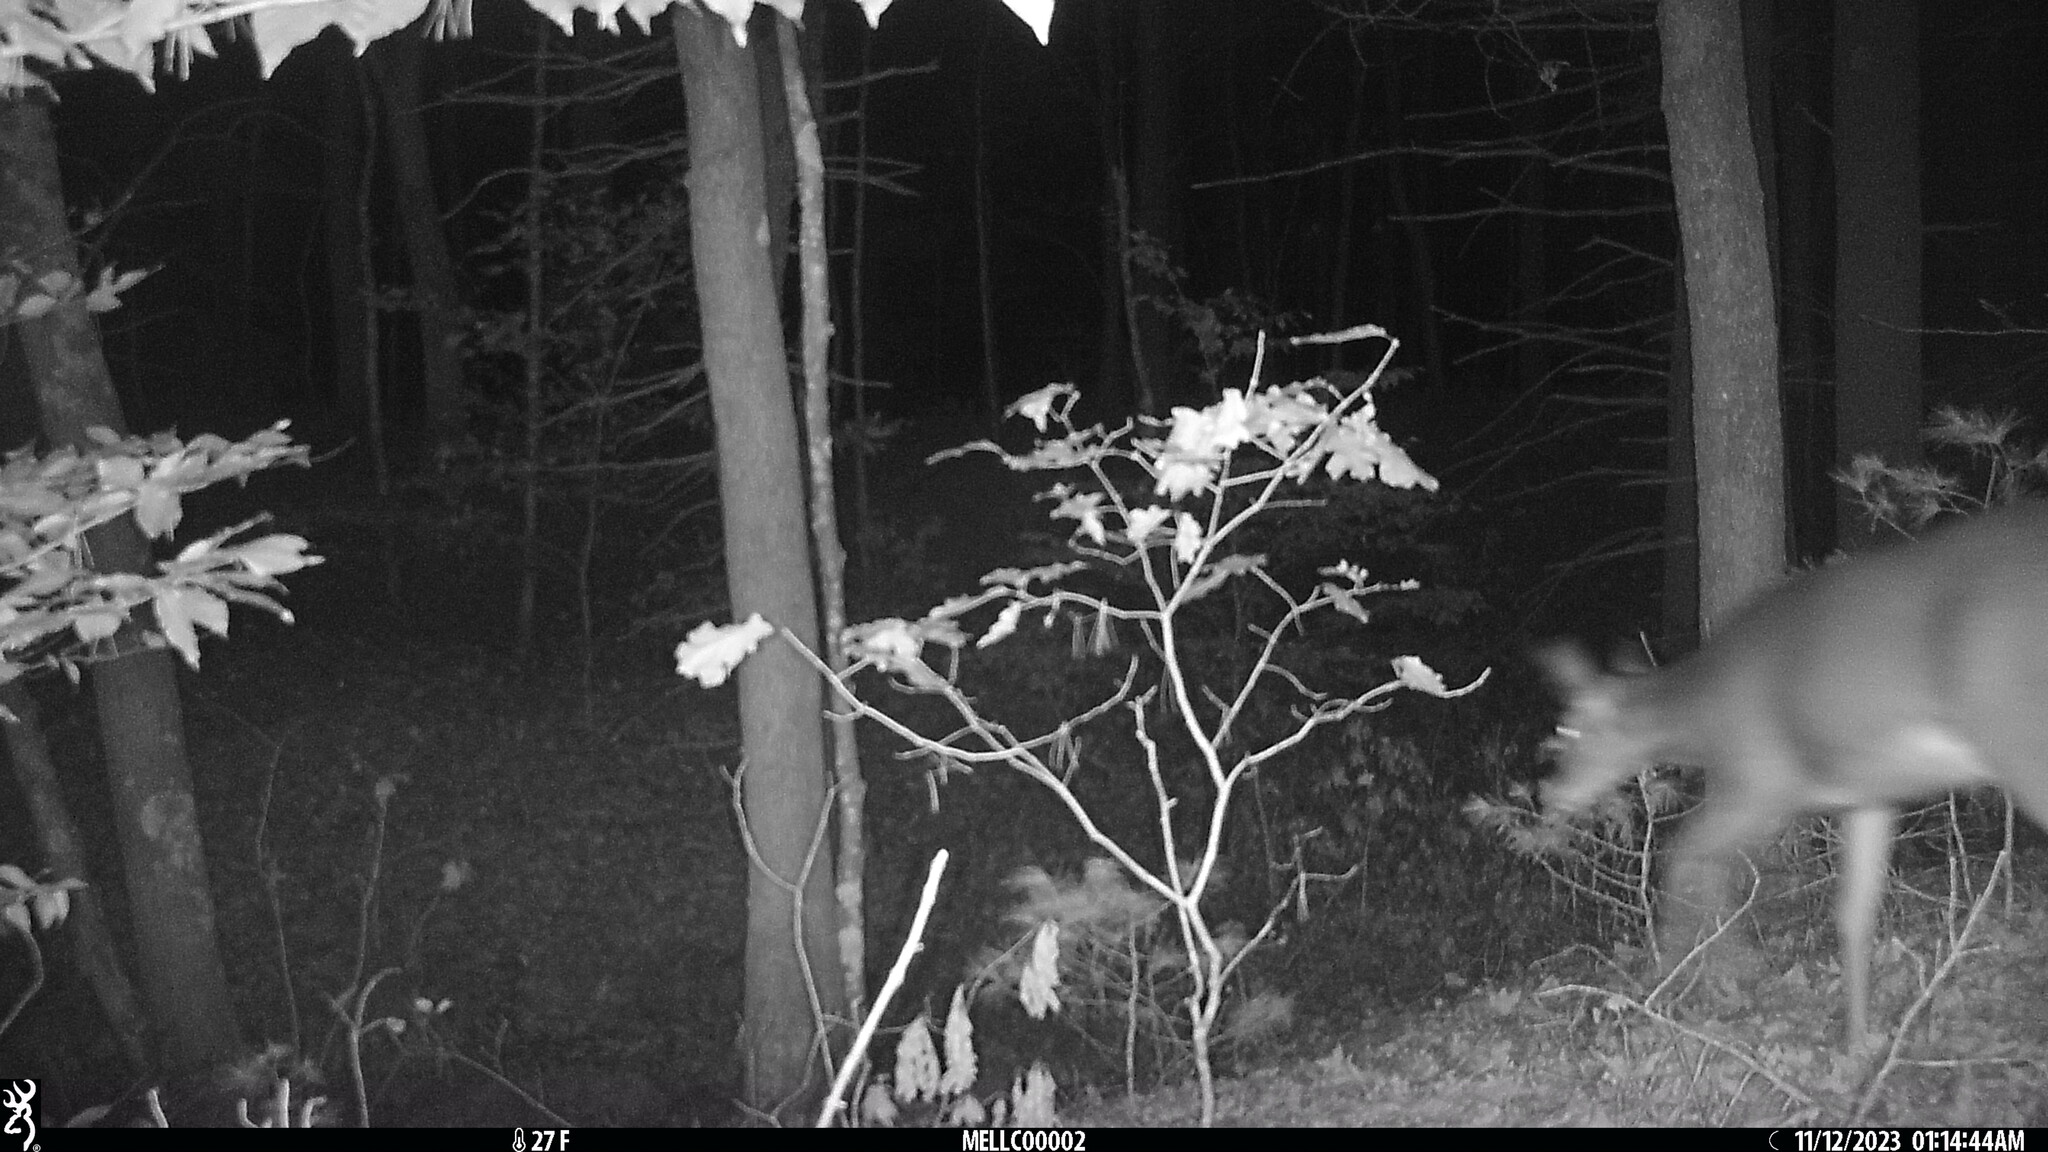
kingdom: Animalia
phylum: Chordata
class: Mammalia
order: Artiodactyla
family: Cervidae
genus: Odocoileus
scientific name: Odocoileus virginianus
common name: White-tailed deer
